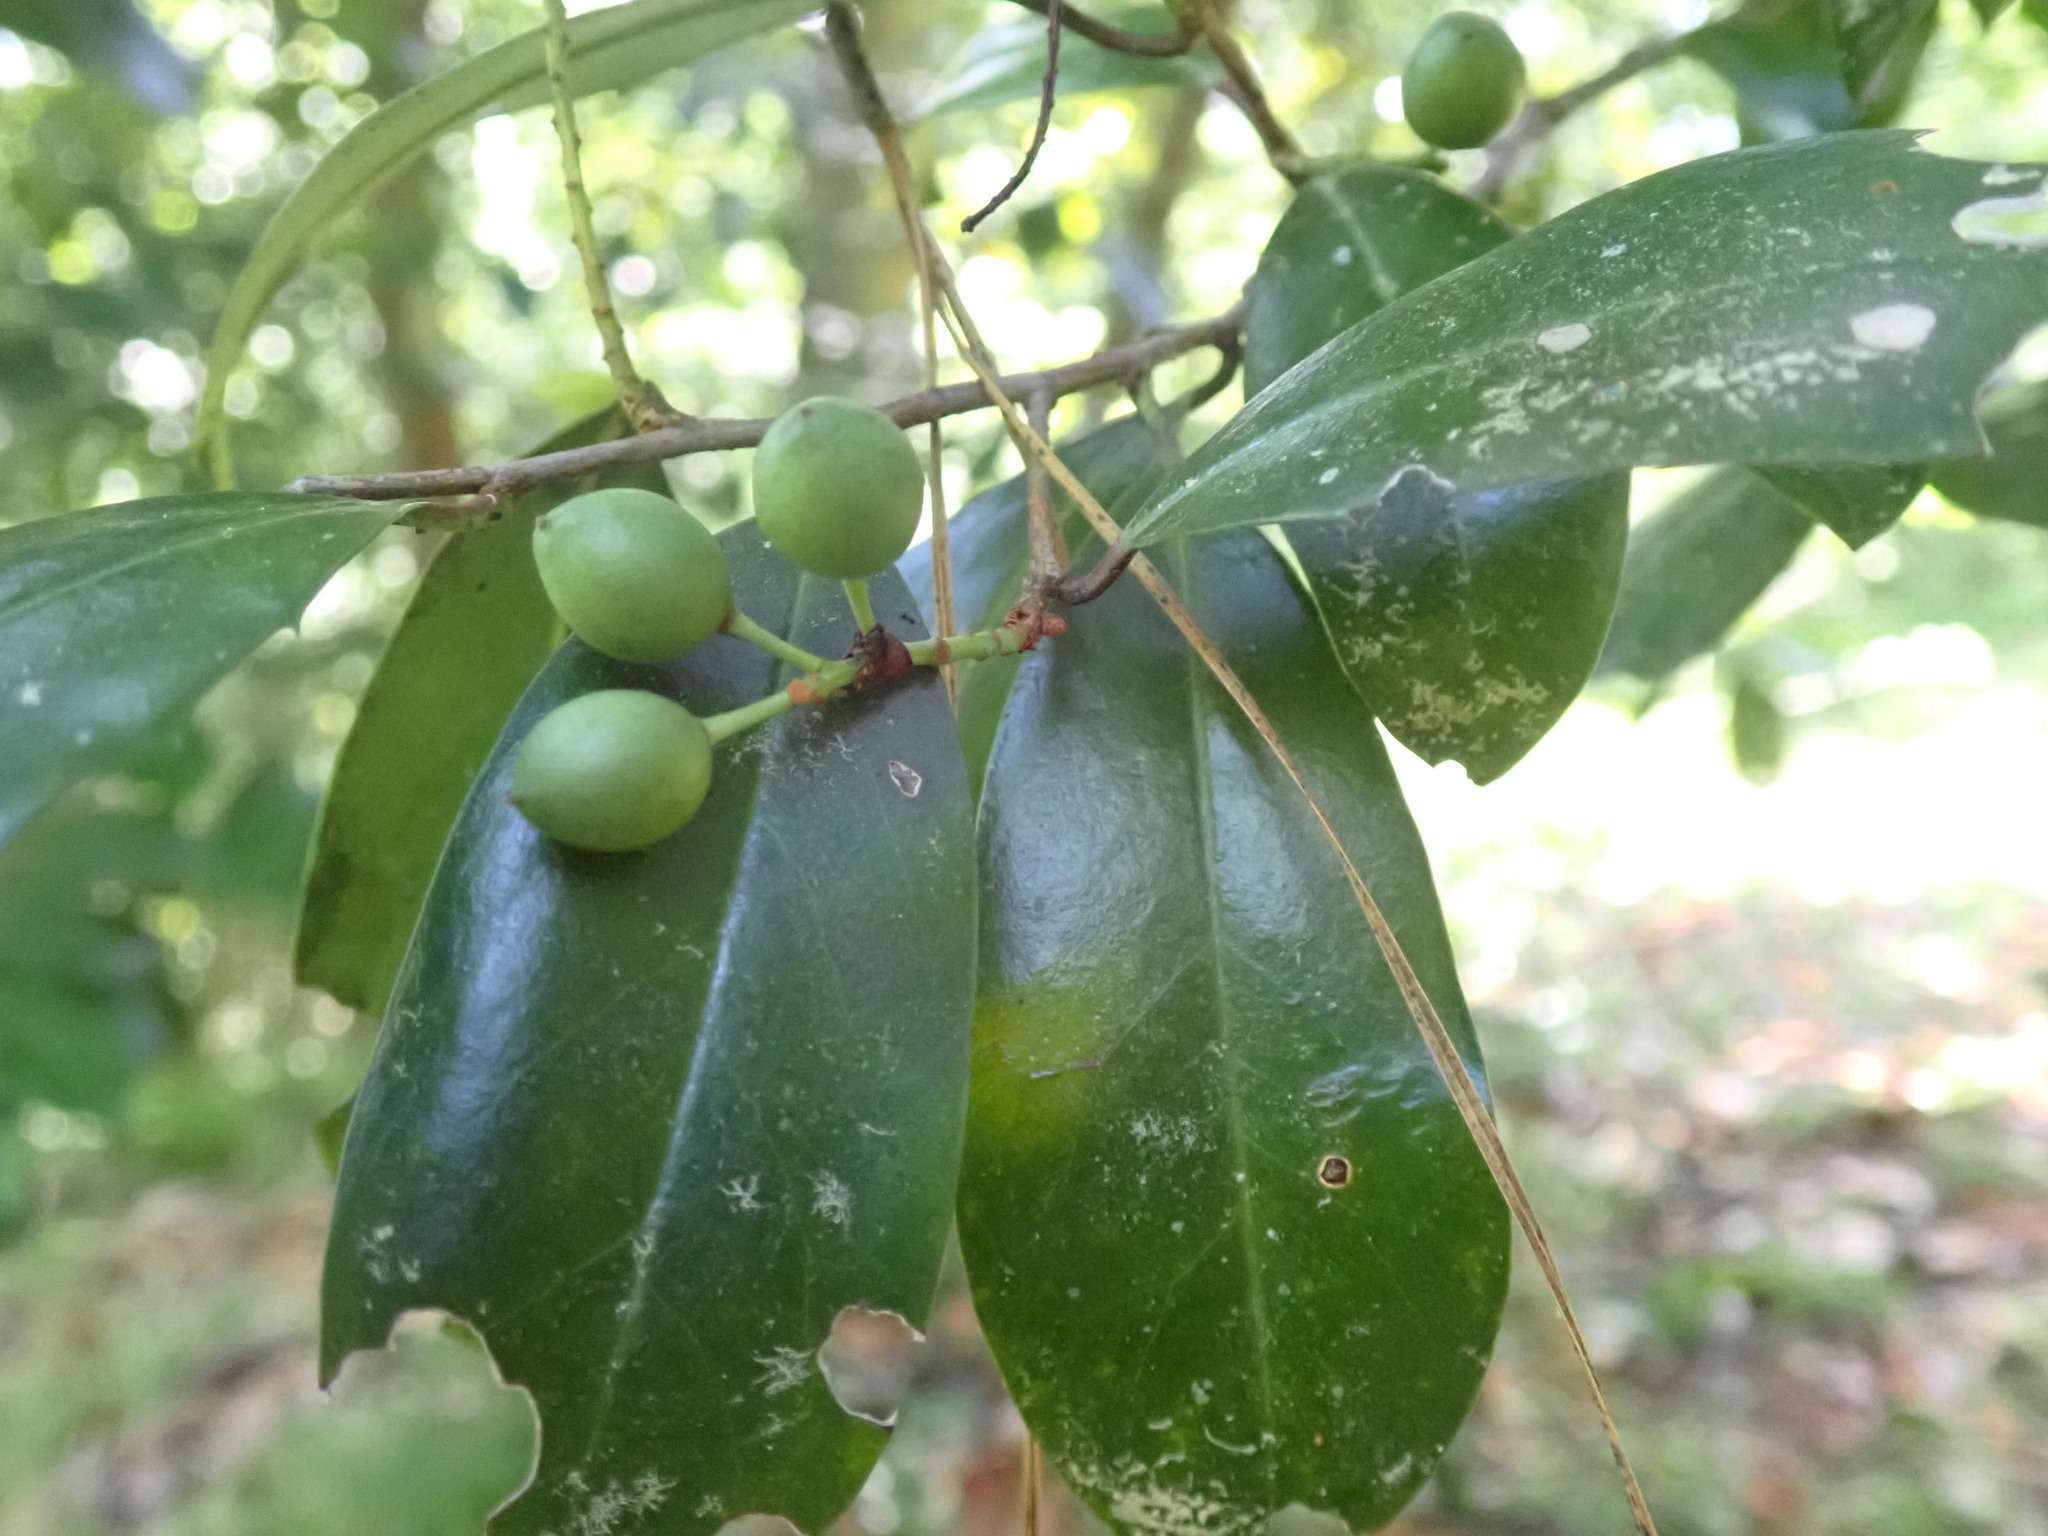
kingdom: Plantae
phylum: Tracheophyta
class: Magnoliopsida
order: Rosales
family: Rosaceae
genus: Prunus
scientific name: Prunus caroliniana
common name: Carolina laurel cherry
